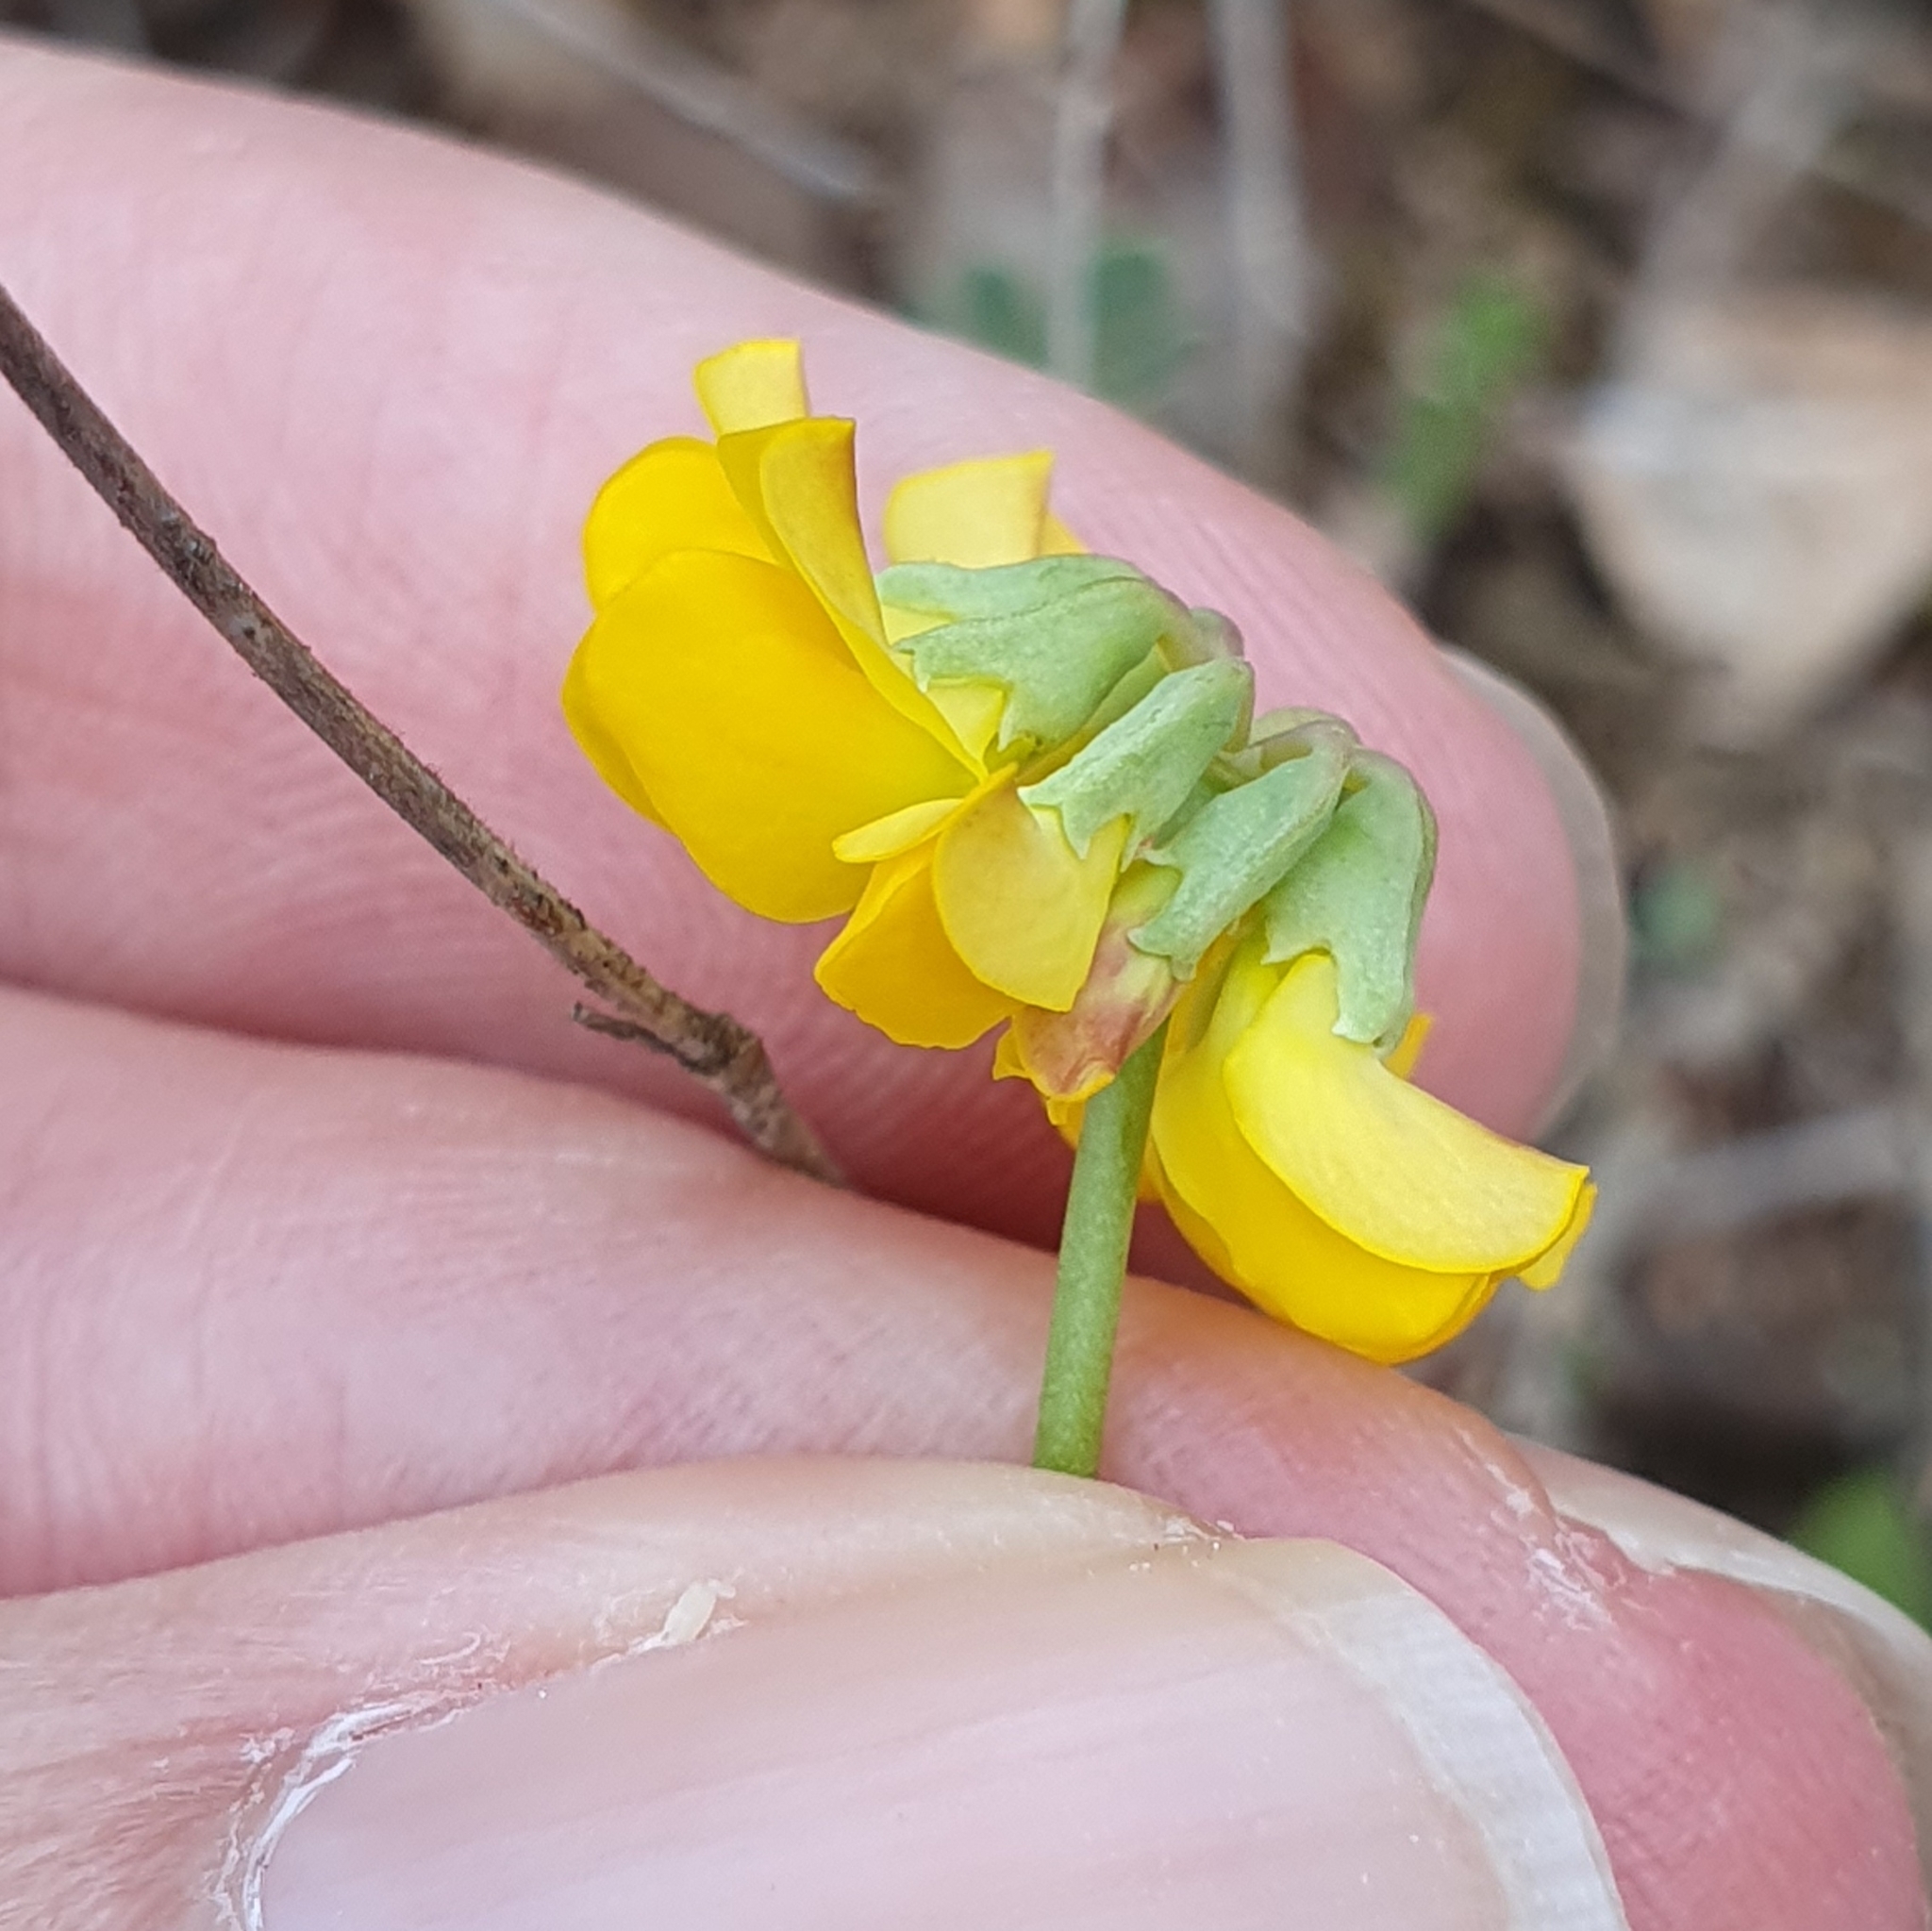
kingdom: Plantae
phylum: Tracheophyta
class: Magnoliopsida
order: Fabales
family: Fabaceae
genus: Coronilla
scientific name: Coronilla minima
